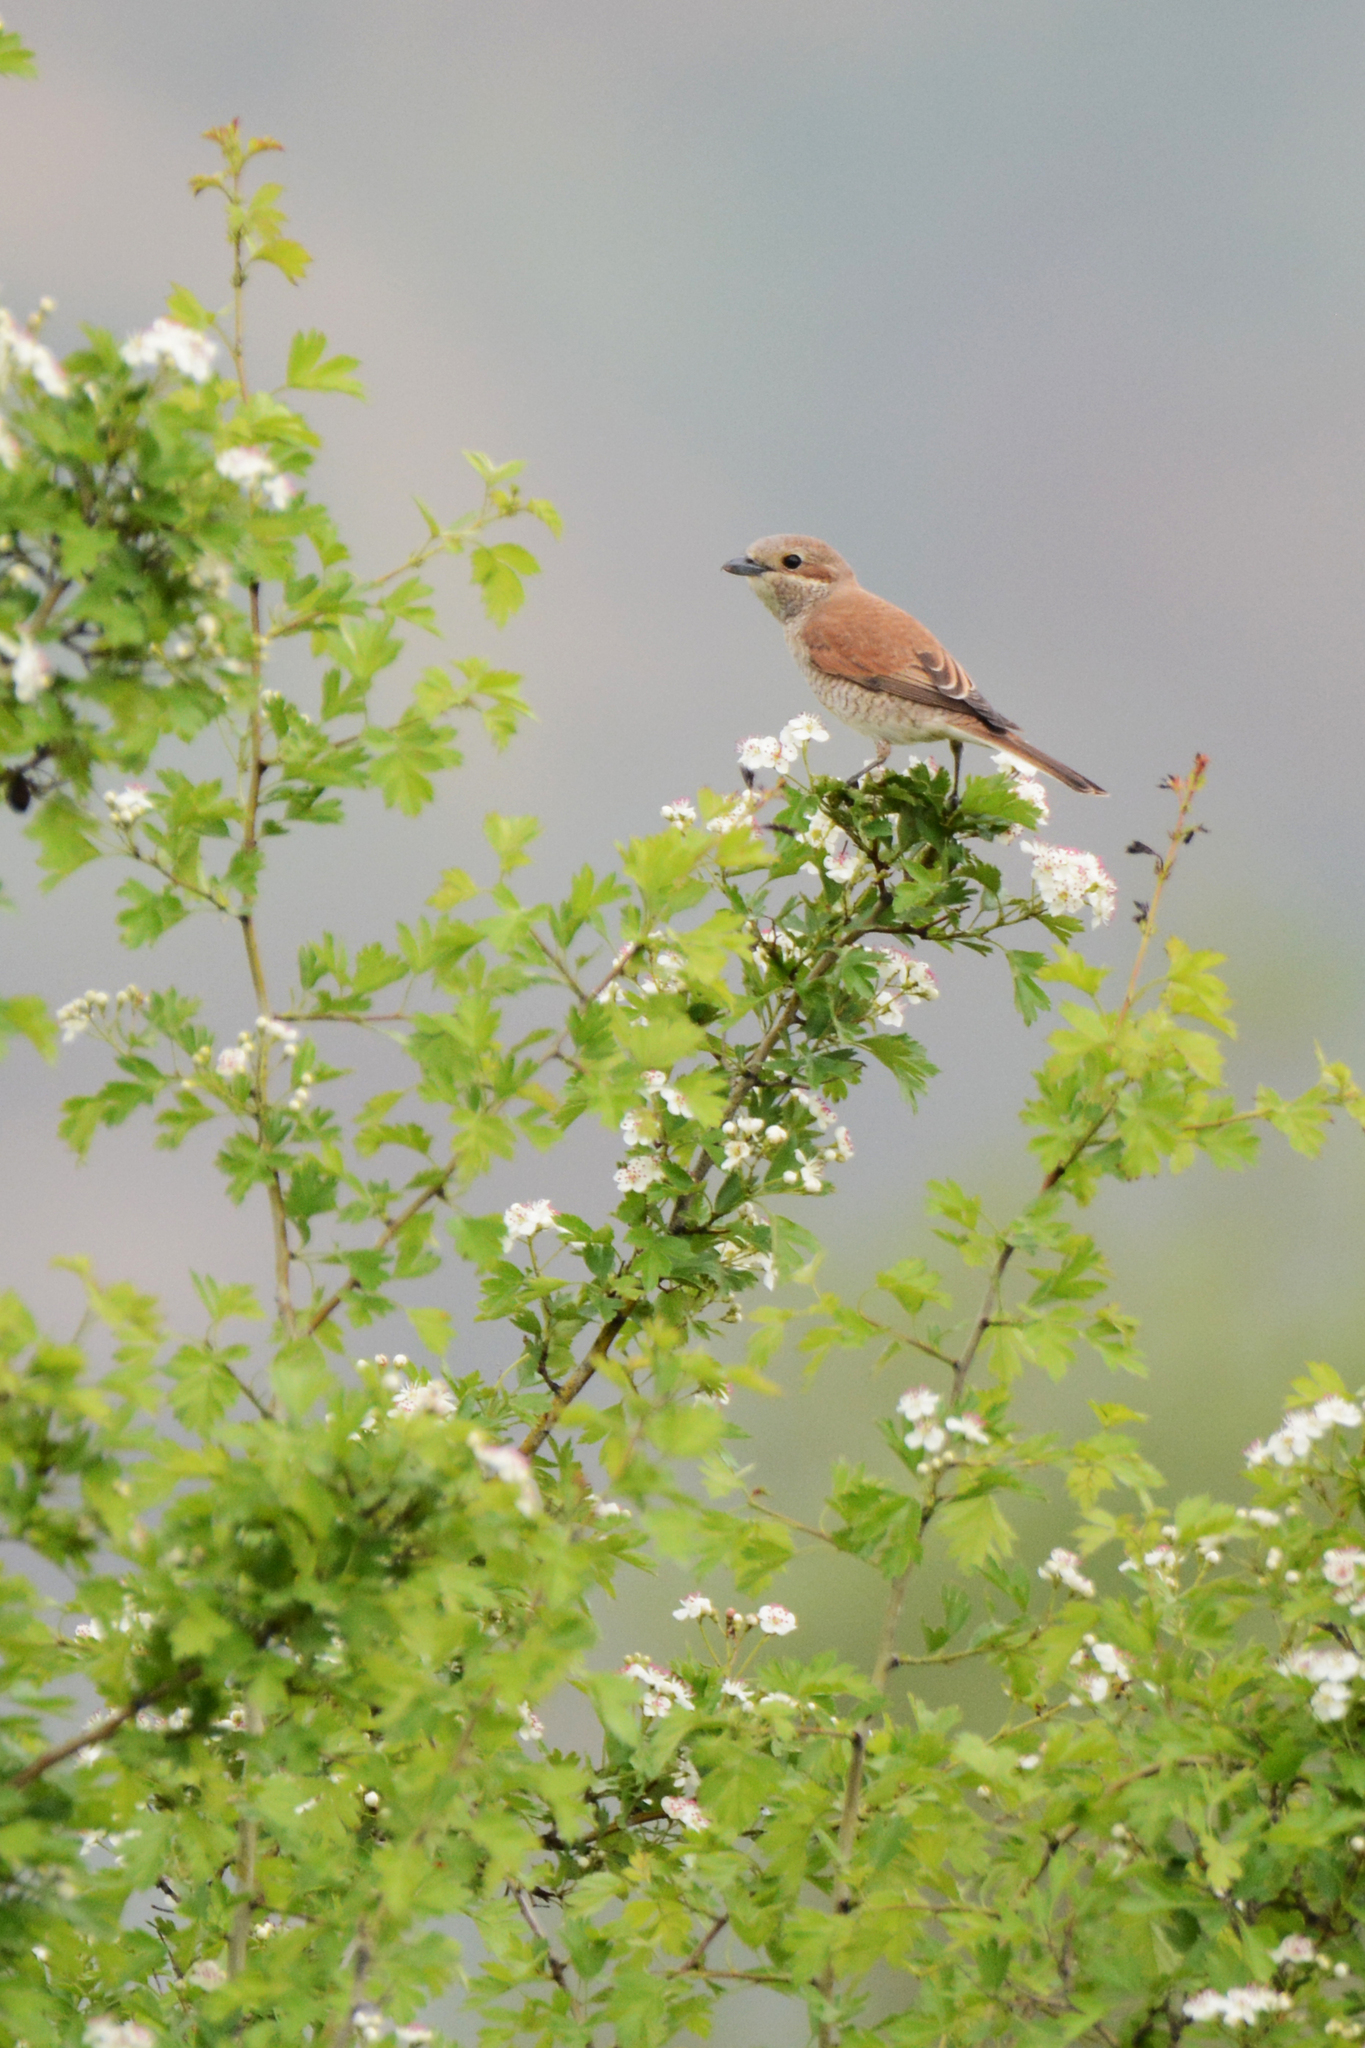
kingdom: Animalia
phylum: Chordata
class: Aves
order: Passeriformes
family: Laniidae
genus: Lanius
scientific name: Lanius collurio
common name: Red-backed shrike
